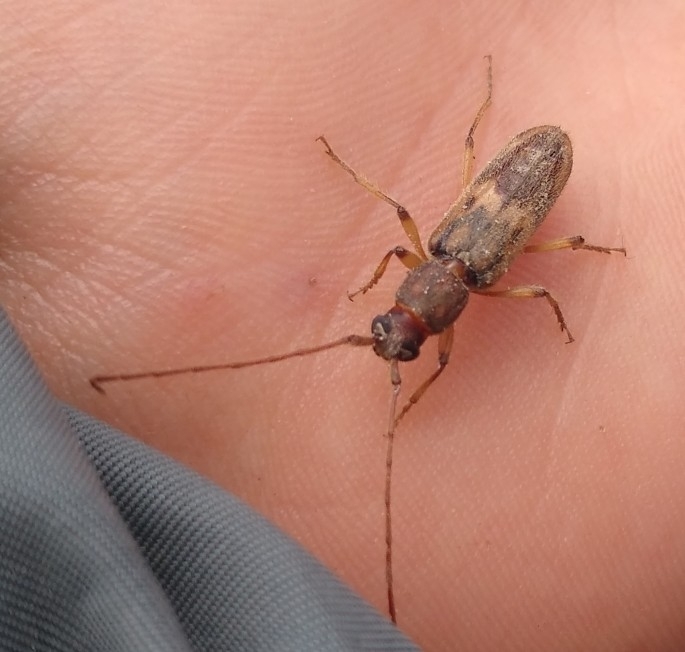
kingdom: Animalia
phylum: Arthropoda
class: Insecta
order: Coleoptera
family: Cerambycidae
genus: Achryson
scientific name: Achryson lutarium
